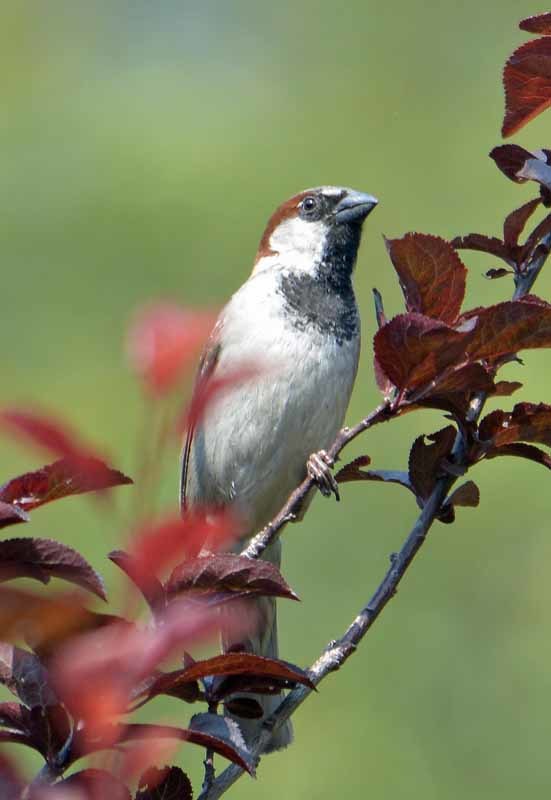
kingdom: Animalia
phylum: Chordata
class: Aves
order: Passeriformes
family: Passeridae
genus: Passer
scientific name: Passer domesticus
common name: House sparrow
